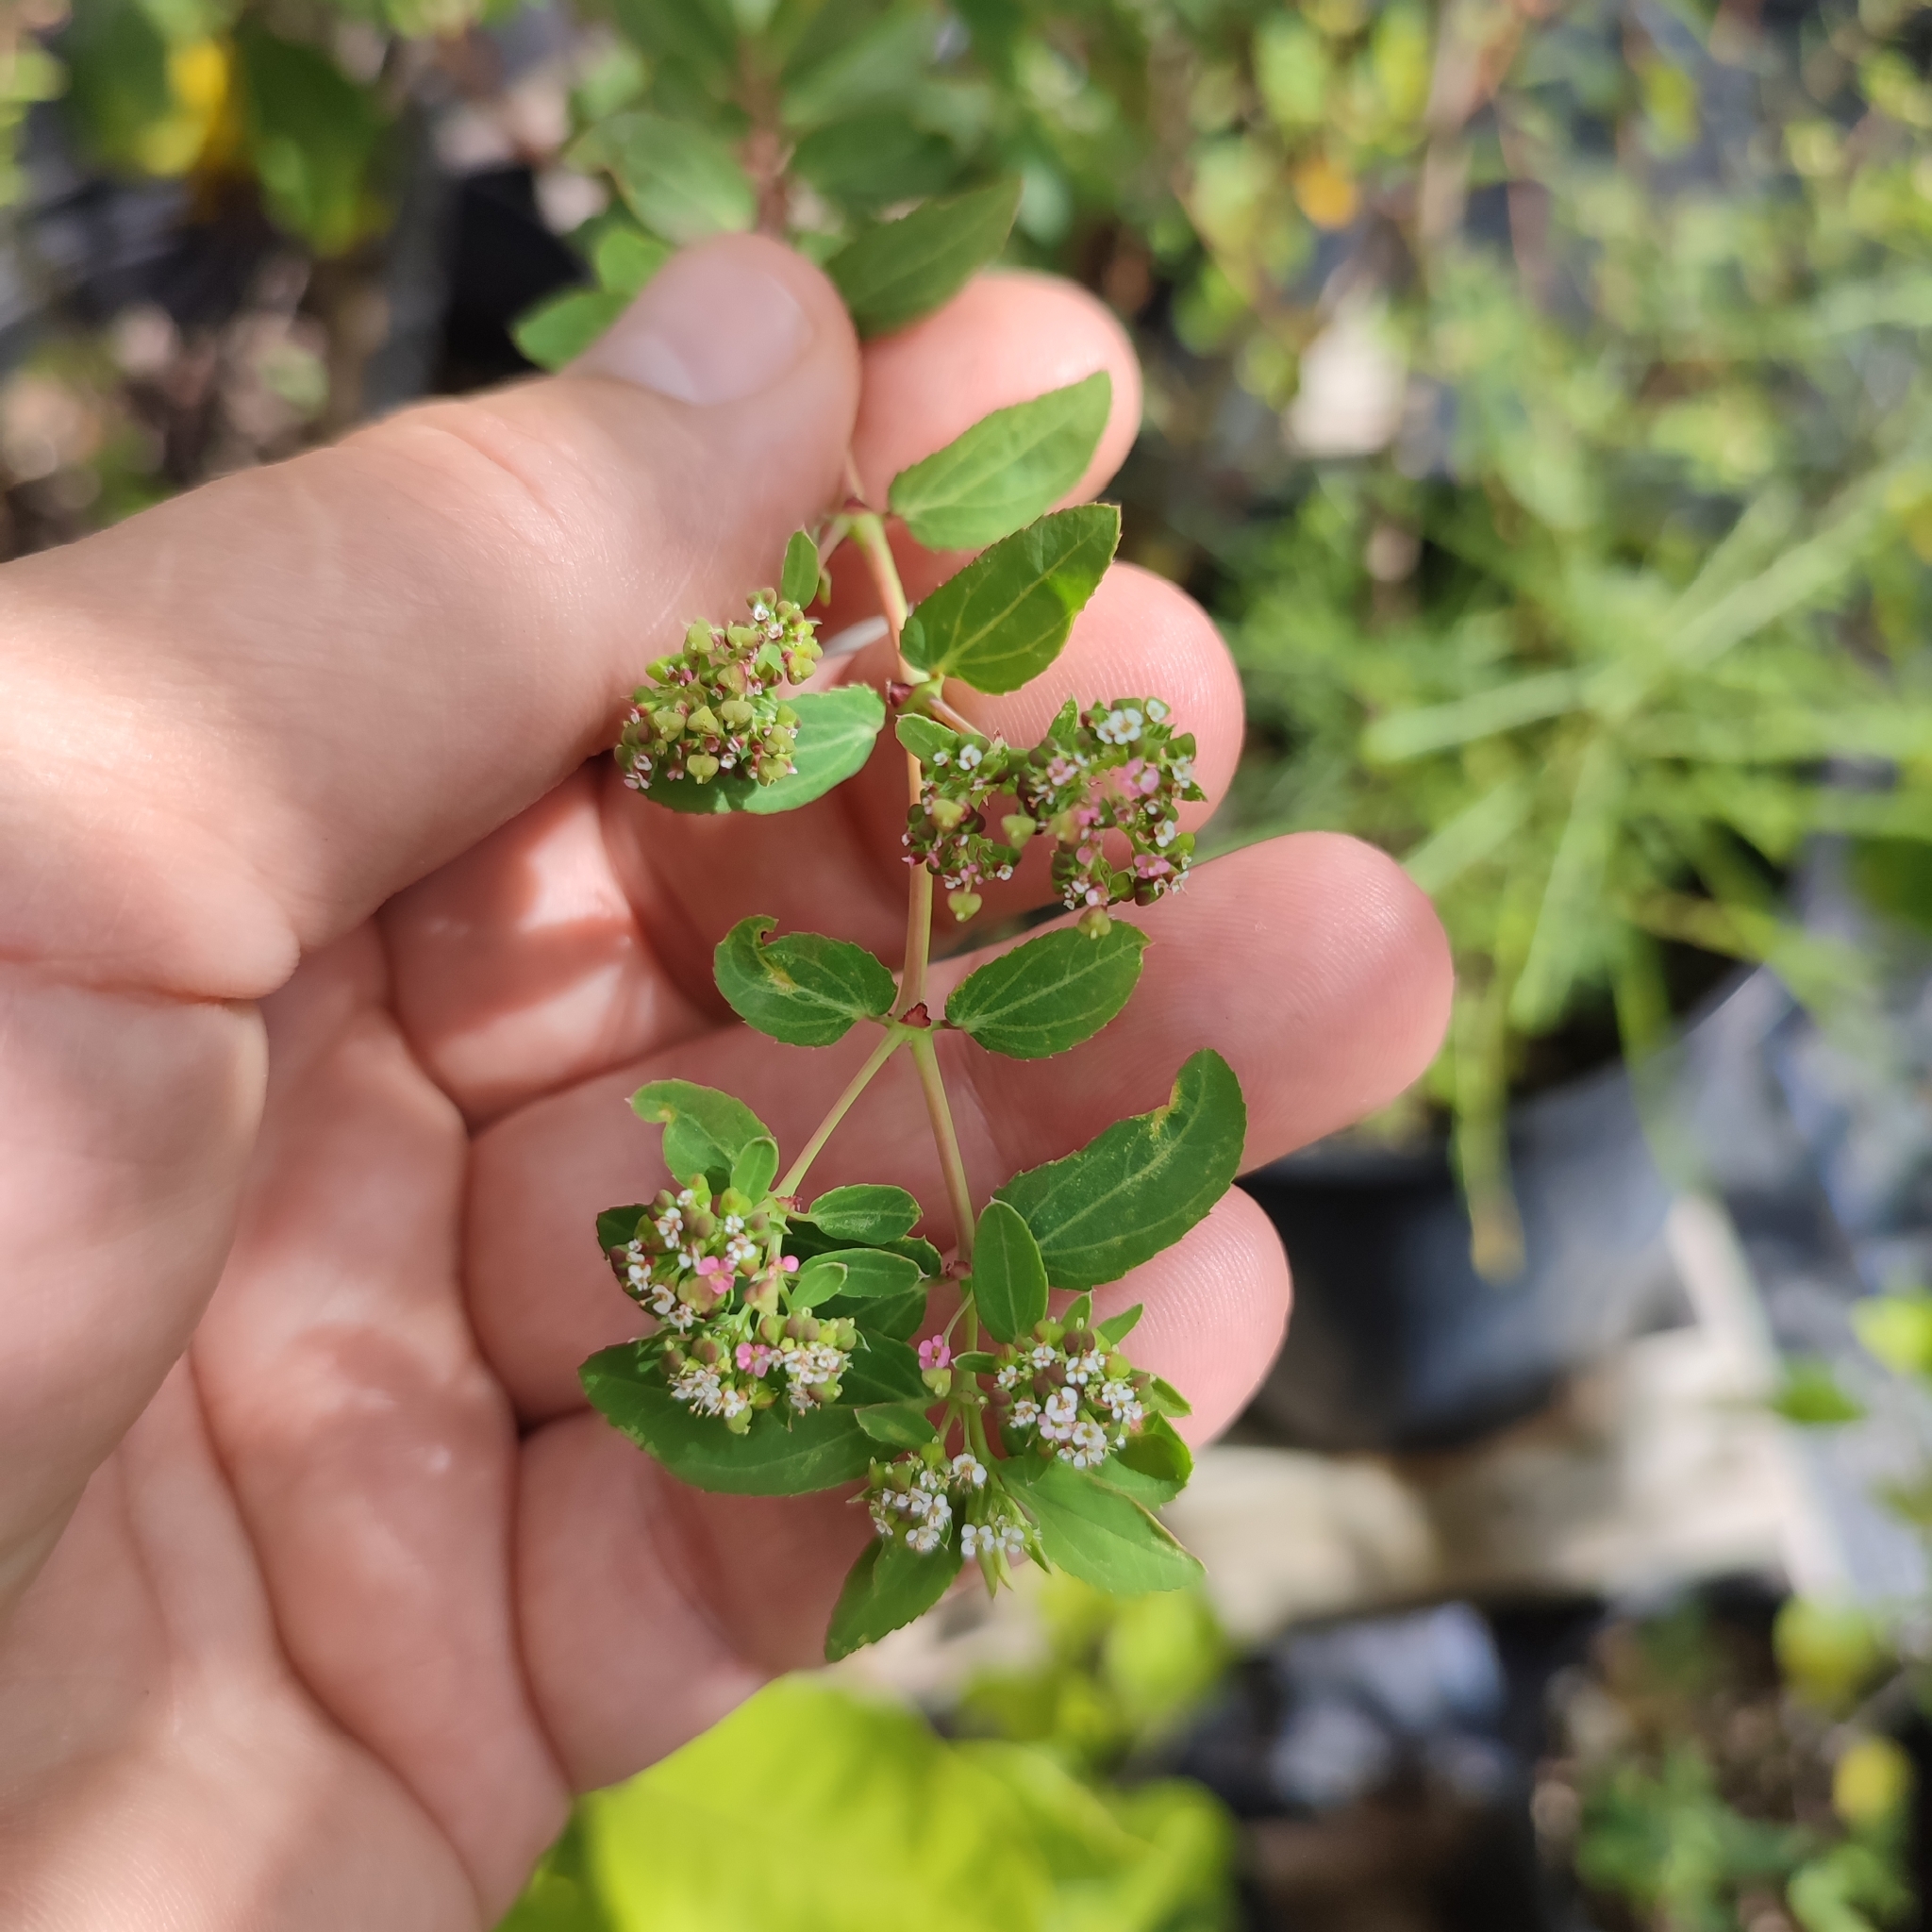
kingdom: Plantae
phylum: Tracheophyta
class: Magnoliopsida
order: Malpighiales
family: Euphorbiaceae
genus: Euphorbia
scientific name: Euphorbia hypericifolia
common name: Graceful sandmat
